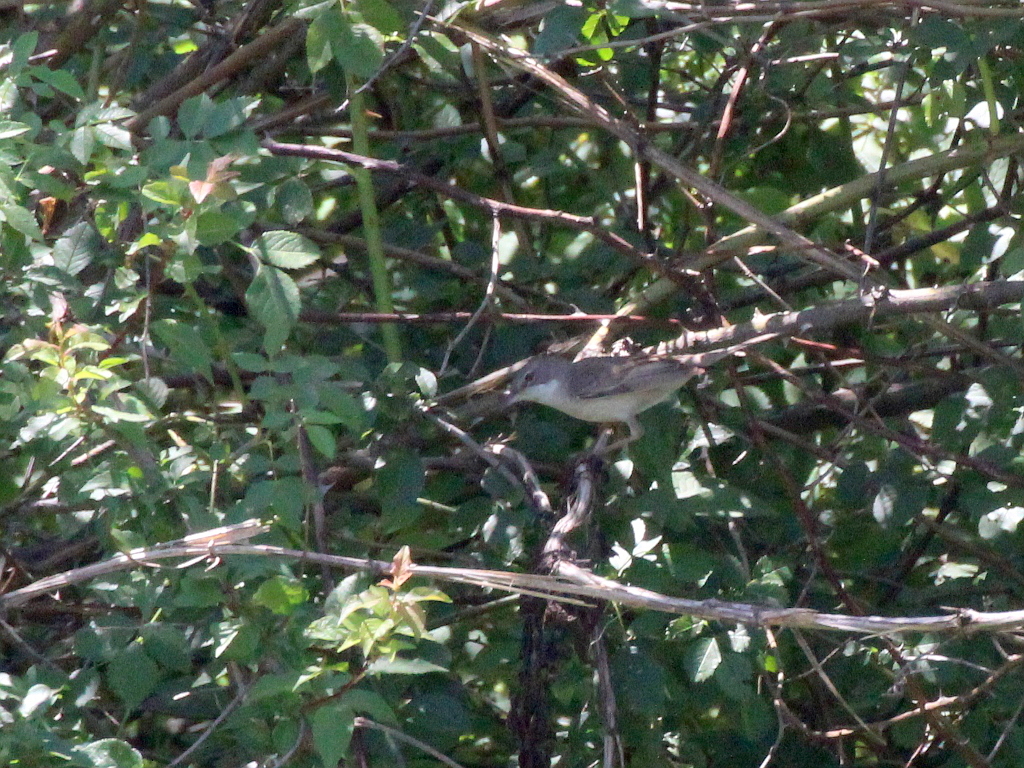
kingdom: Animalia
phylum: Chordata
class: Aves
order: Passeriformes
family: Sylviidae
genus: Sylvia
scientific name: Sylvia communis
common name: Common whitethroat
